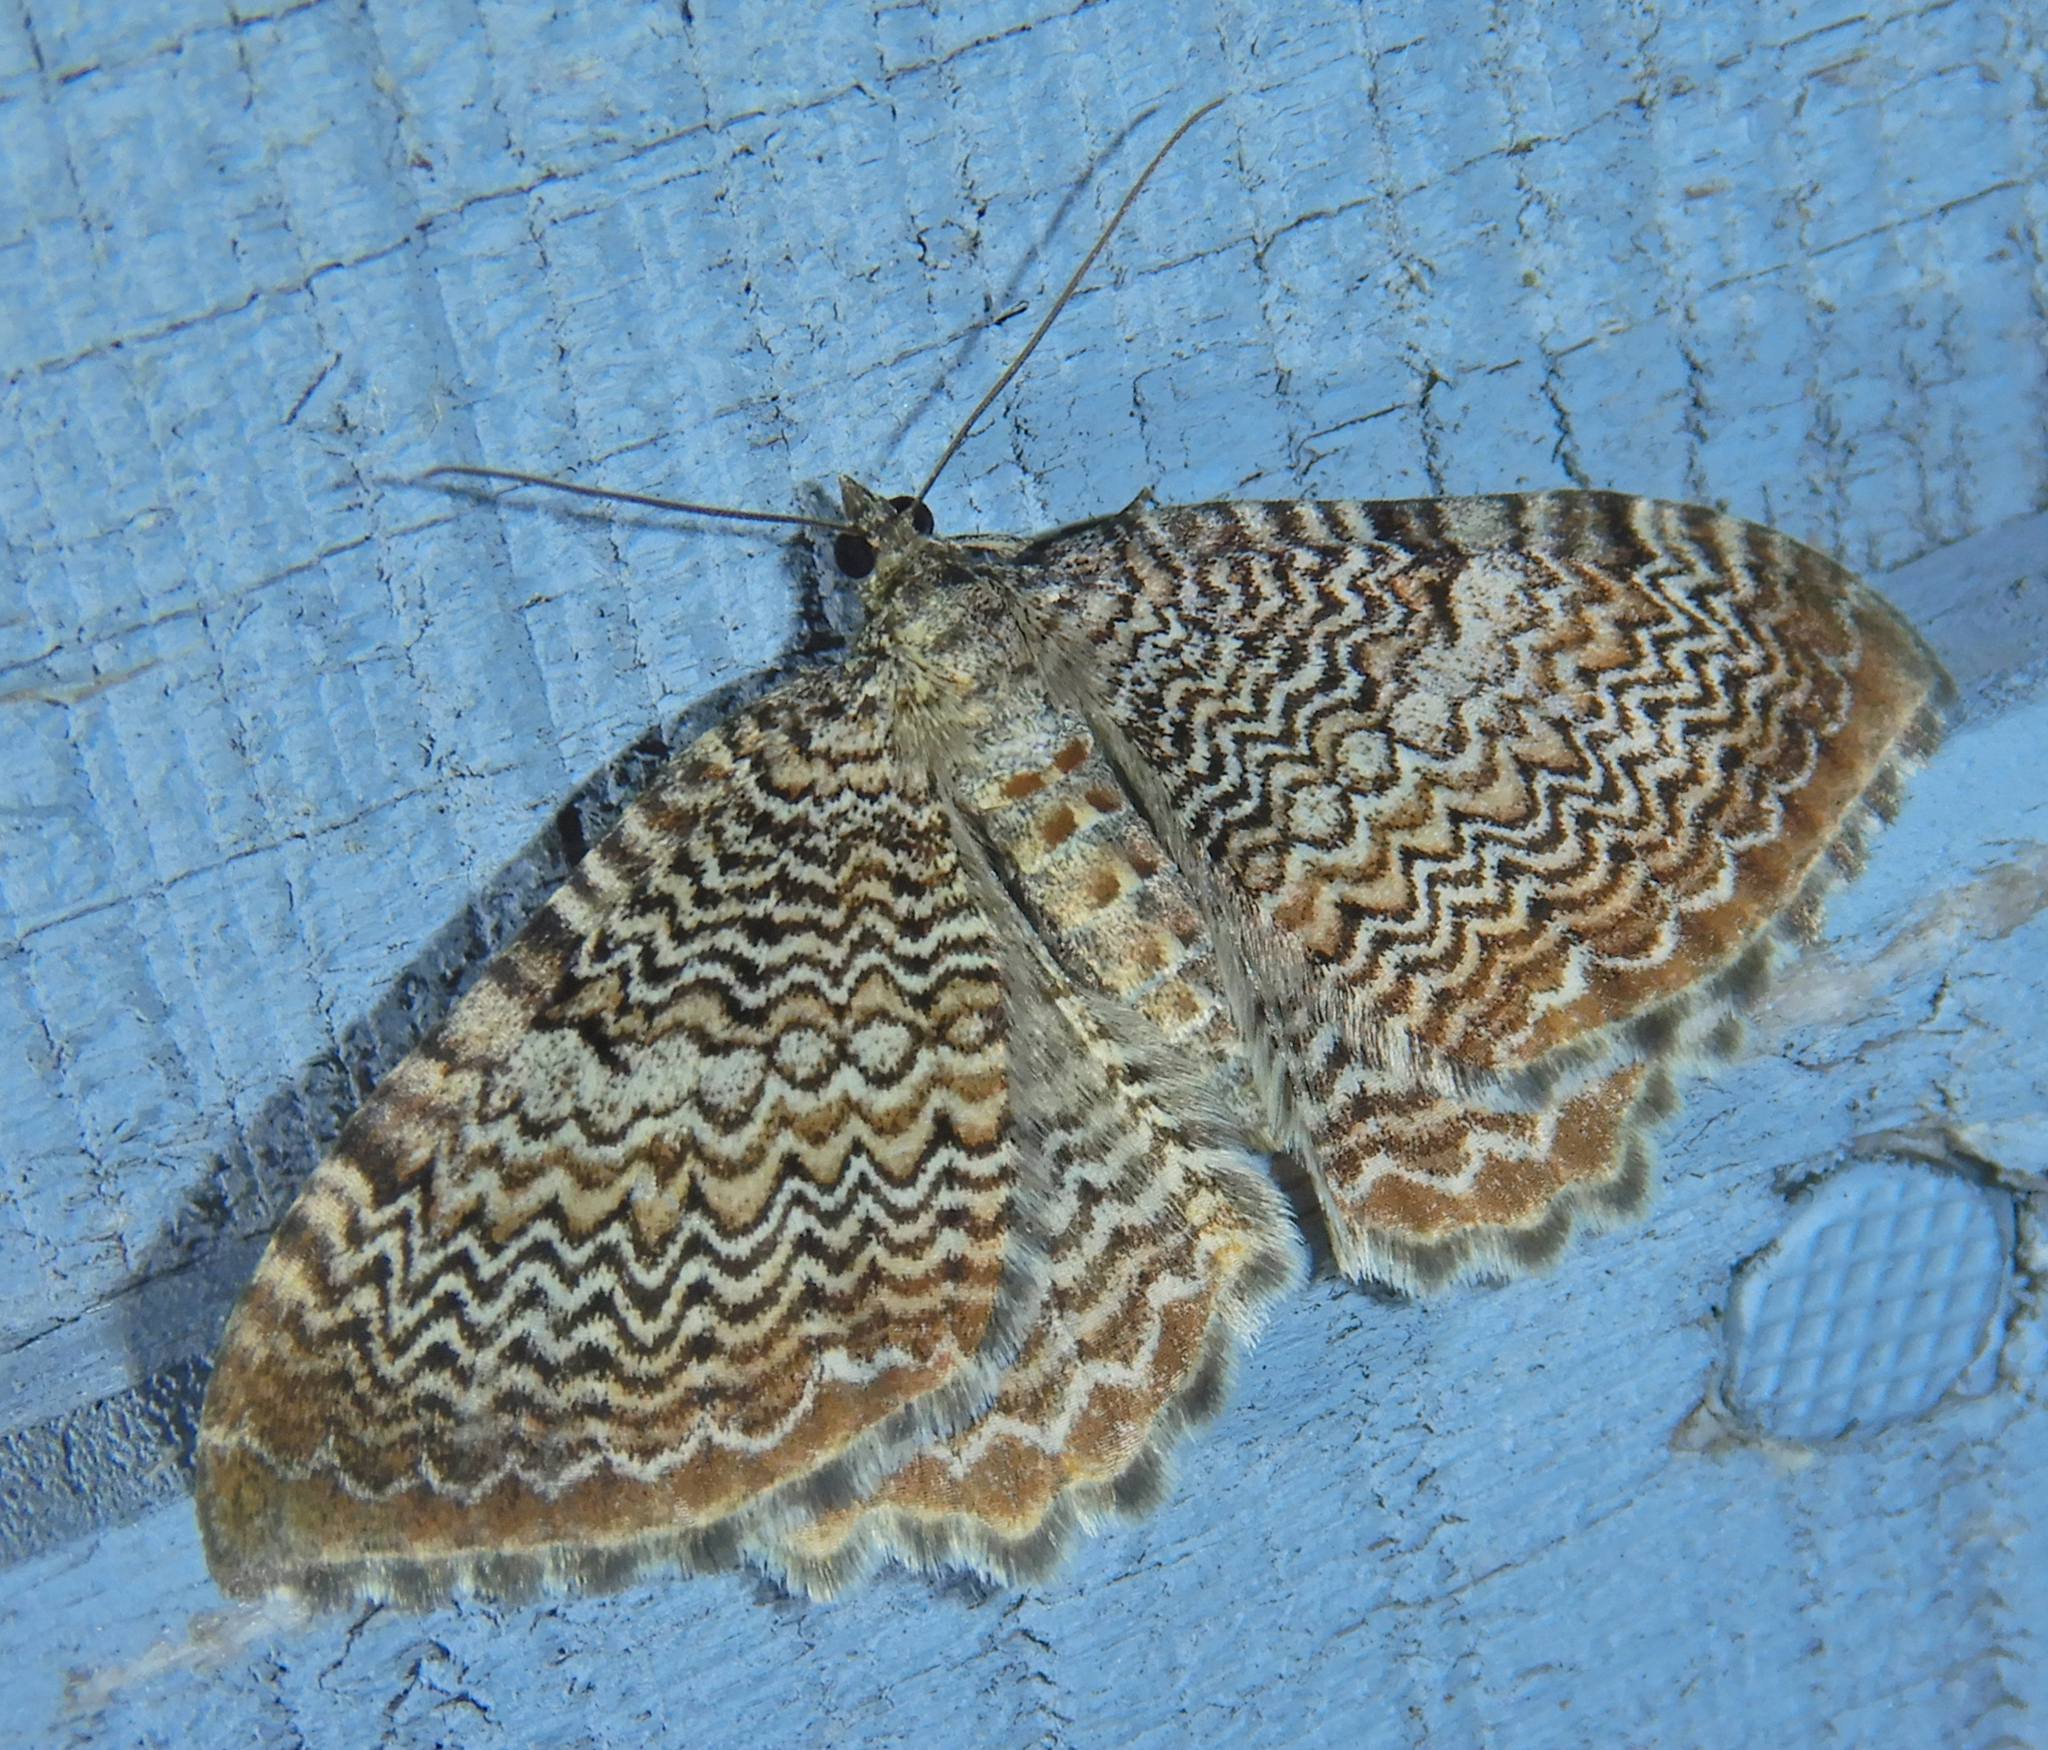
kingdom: Animalia
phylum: Arthropoda
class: Insecta
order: Lepidoptera
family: Geometridae
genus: Rheumaptera
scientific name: Rheumaptera prunivorata
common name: Cherry scallop shell moth
